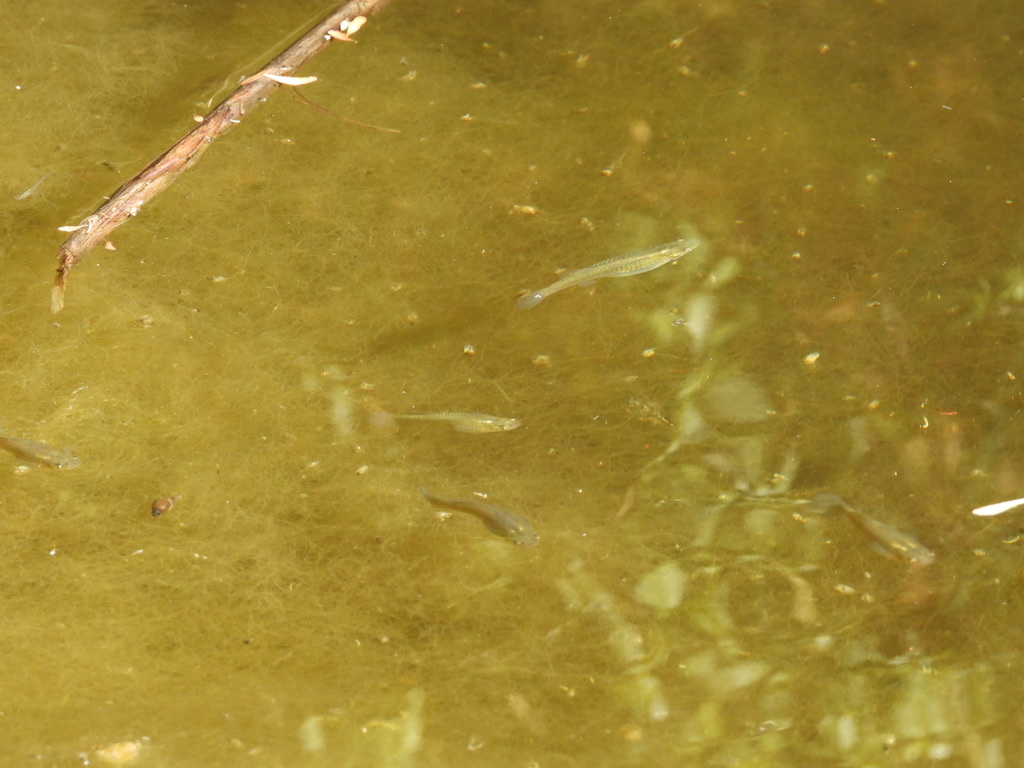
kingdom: Animalia
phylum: Chordata
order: Cyprinodontiformes
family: Poeciliidae
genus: Gambusia
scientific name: Gambusia affinis
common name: Mosquitofish
